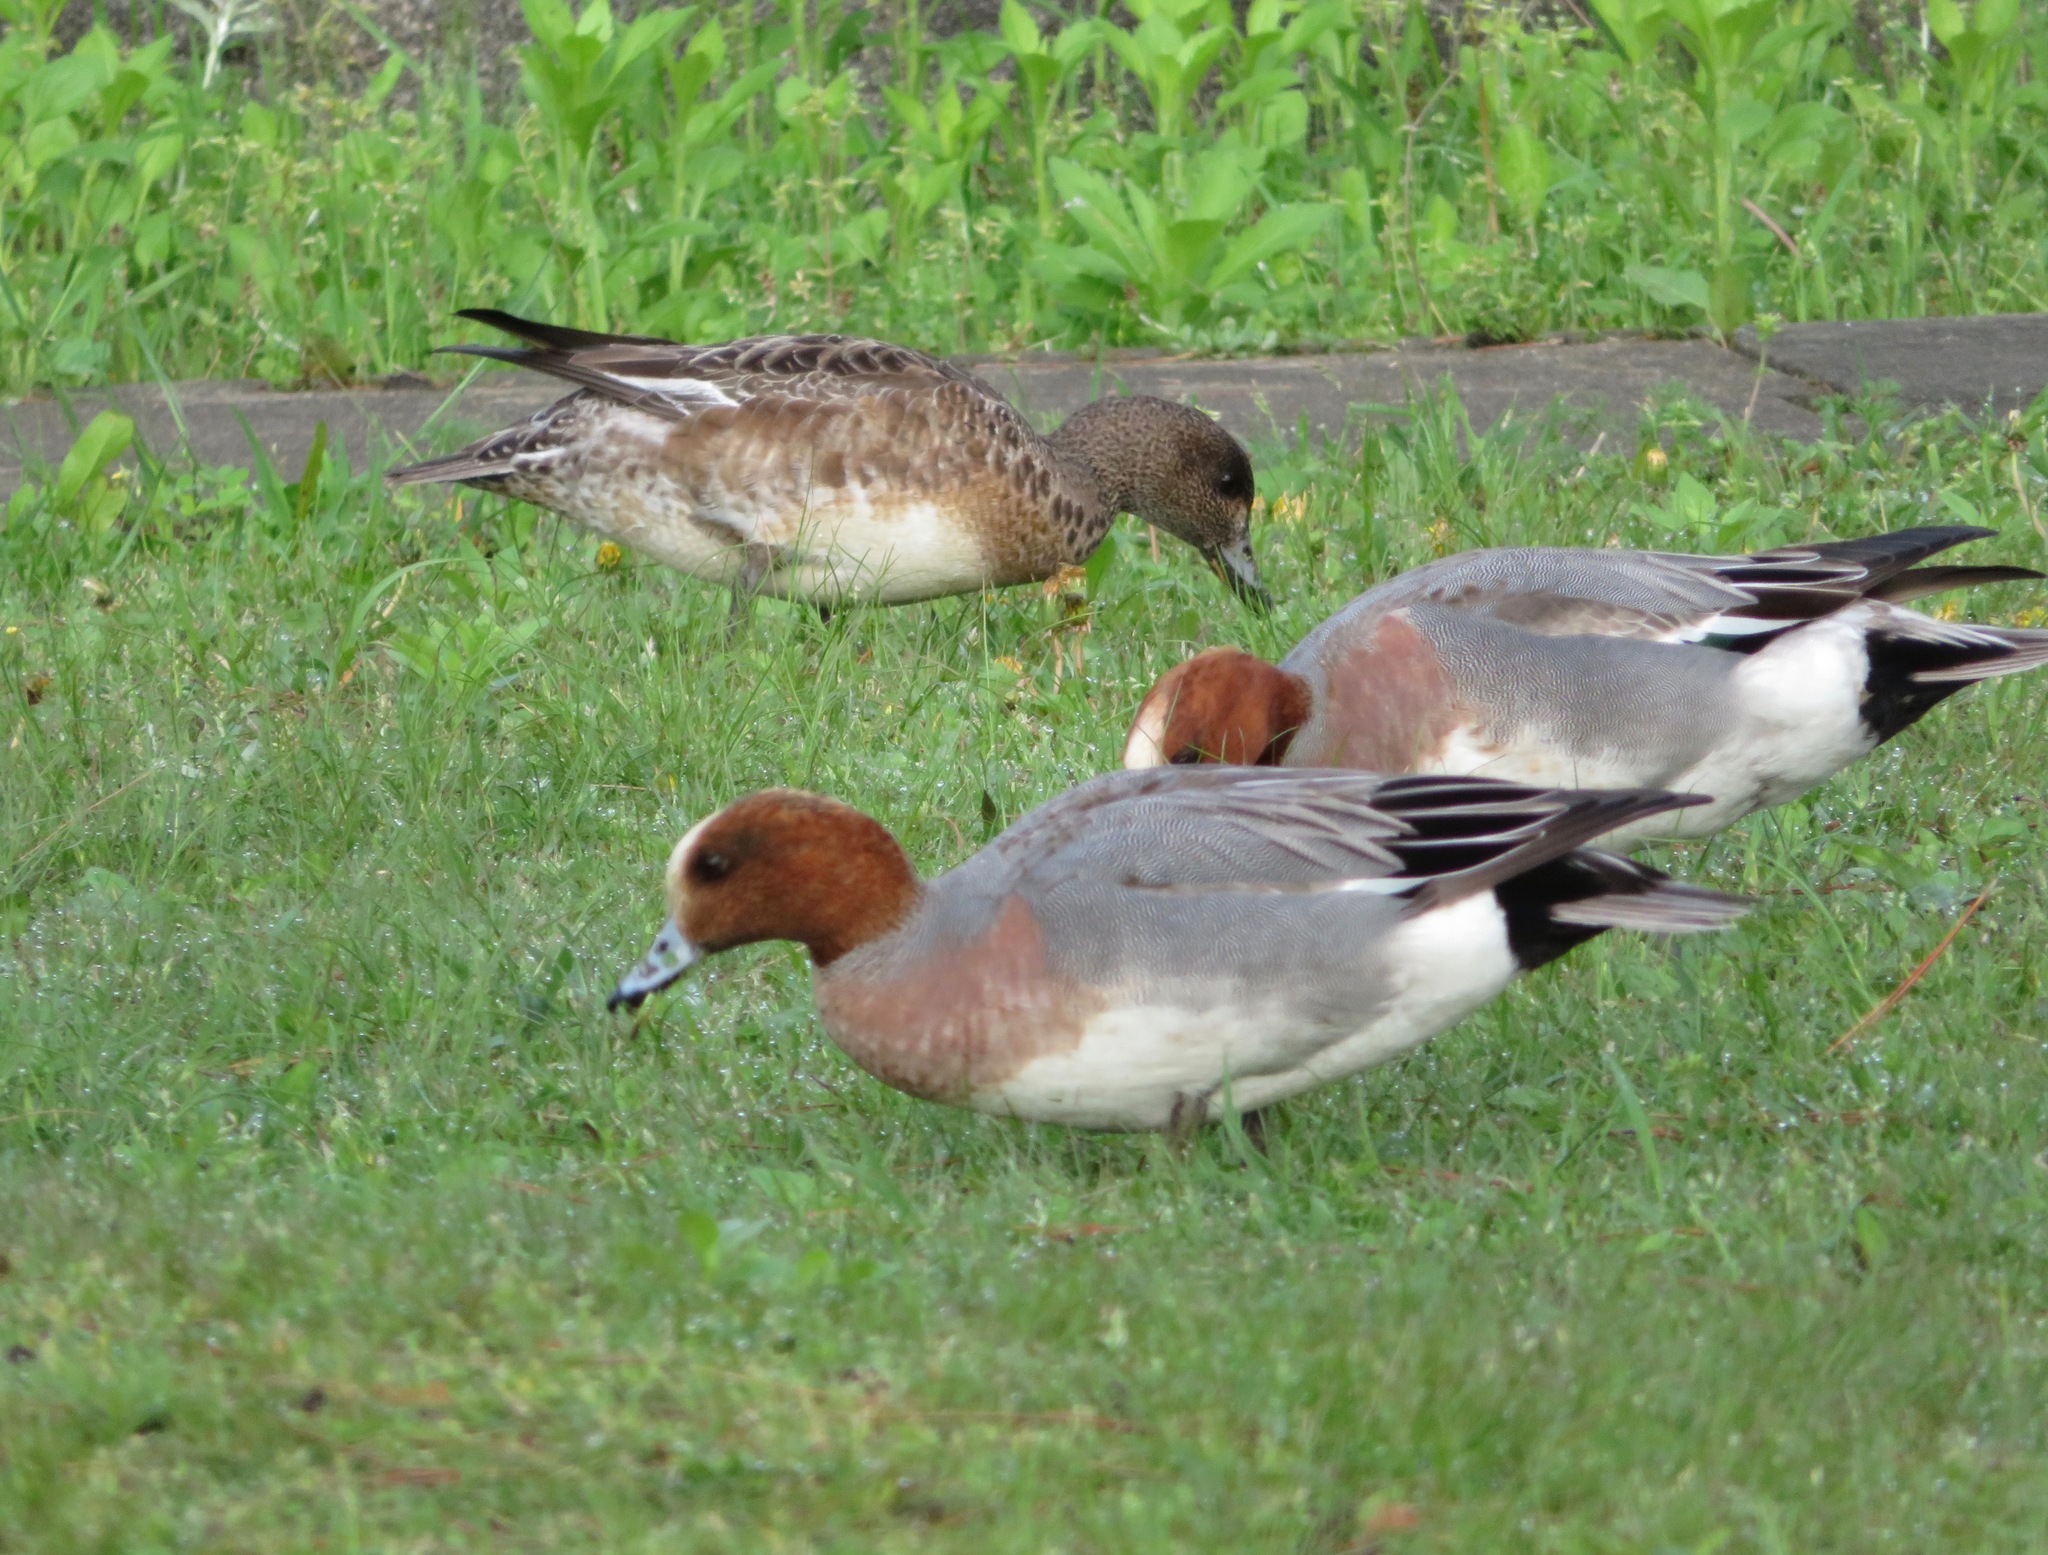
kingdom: Animalia
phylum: Chordata
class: Aves
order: Anseriformes
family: Anatidae
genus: Mareca
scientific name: Mareca penelope
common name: Eurasian wigeon
